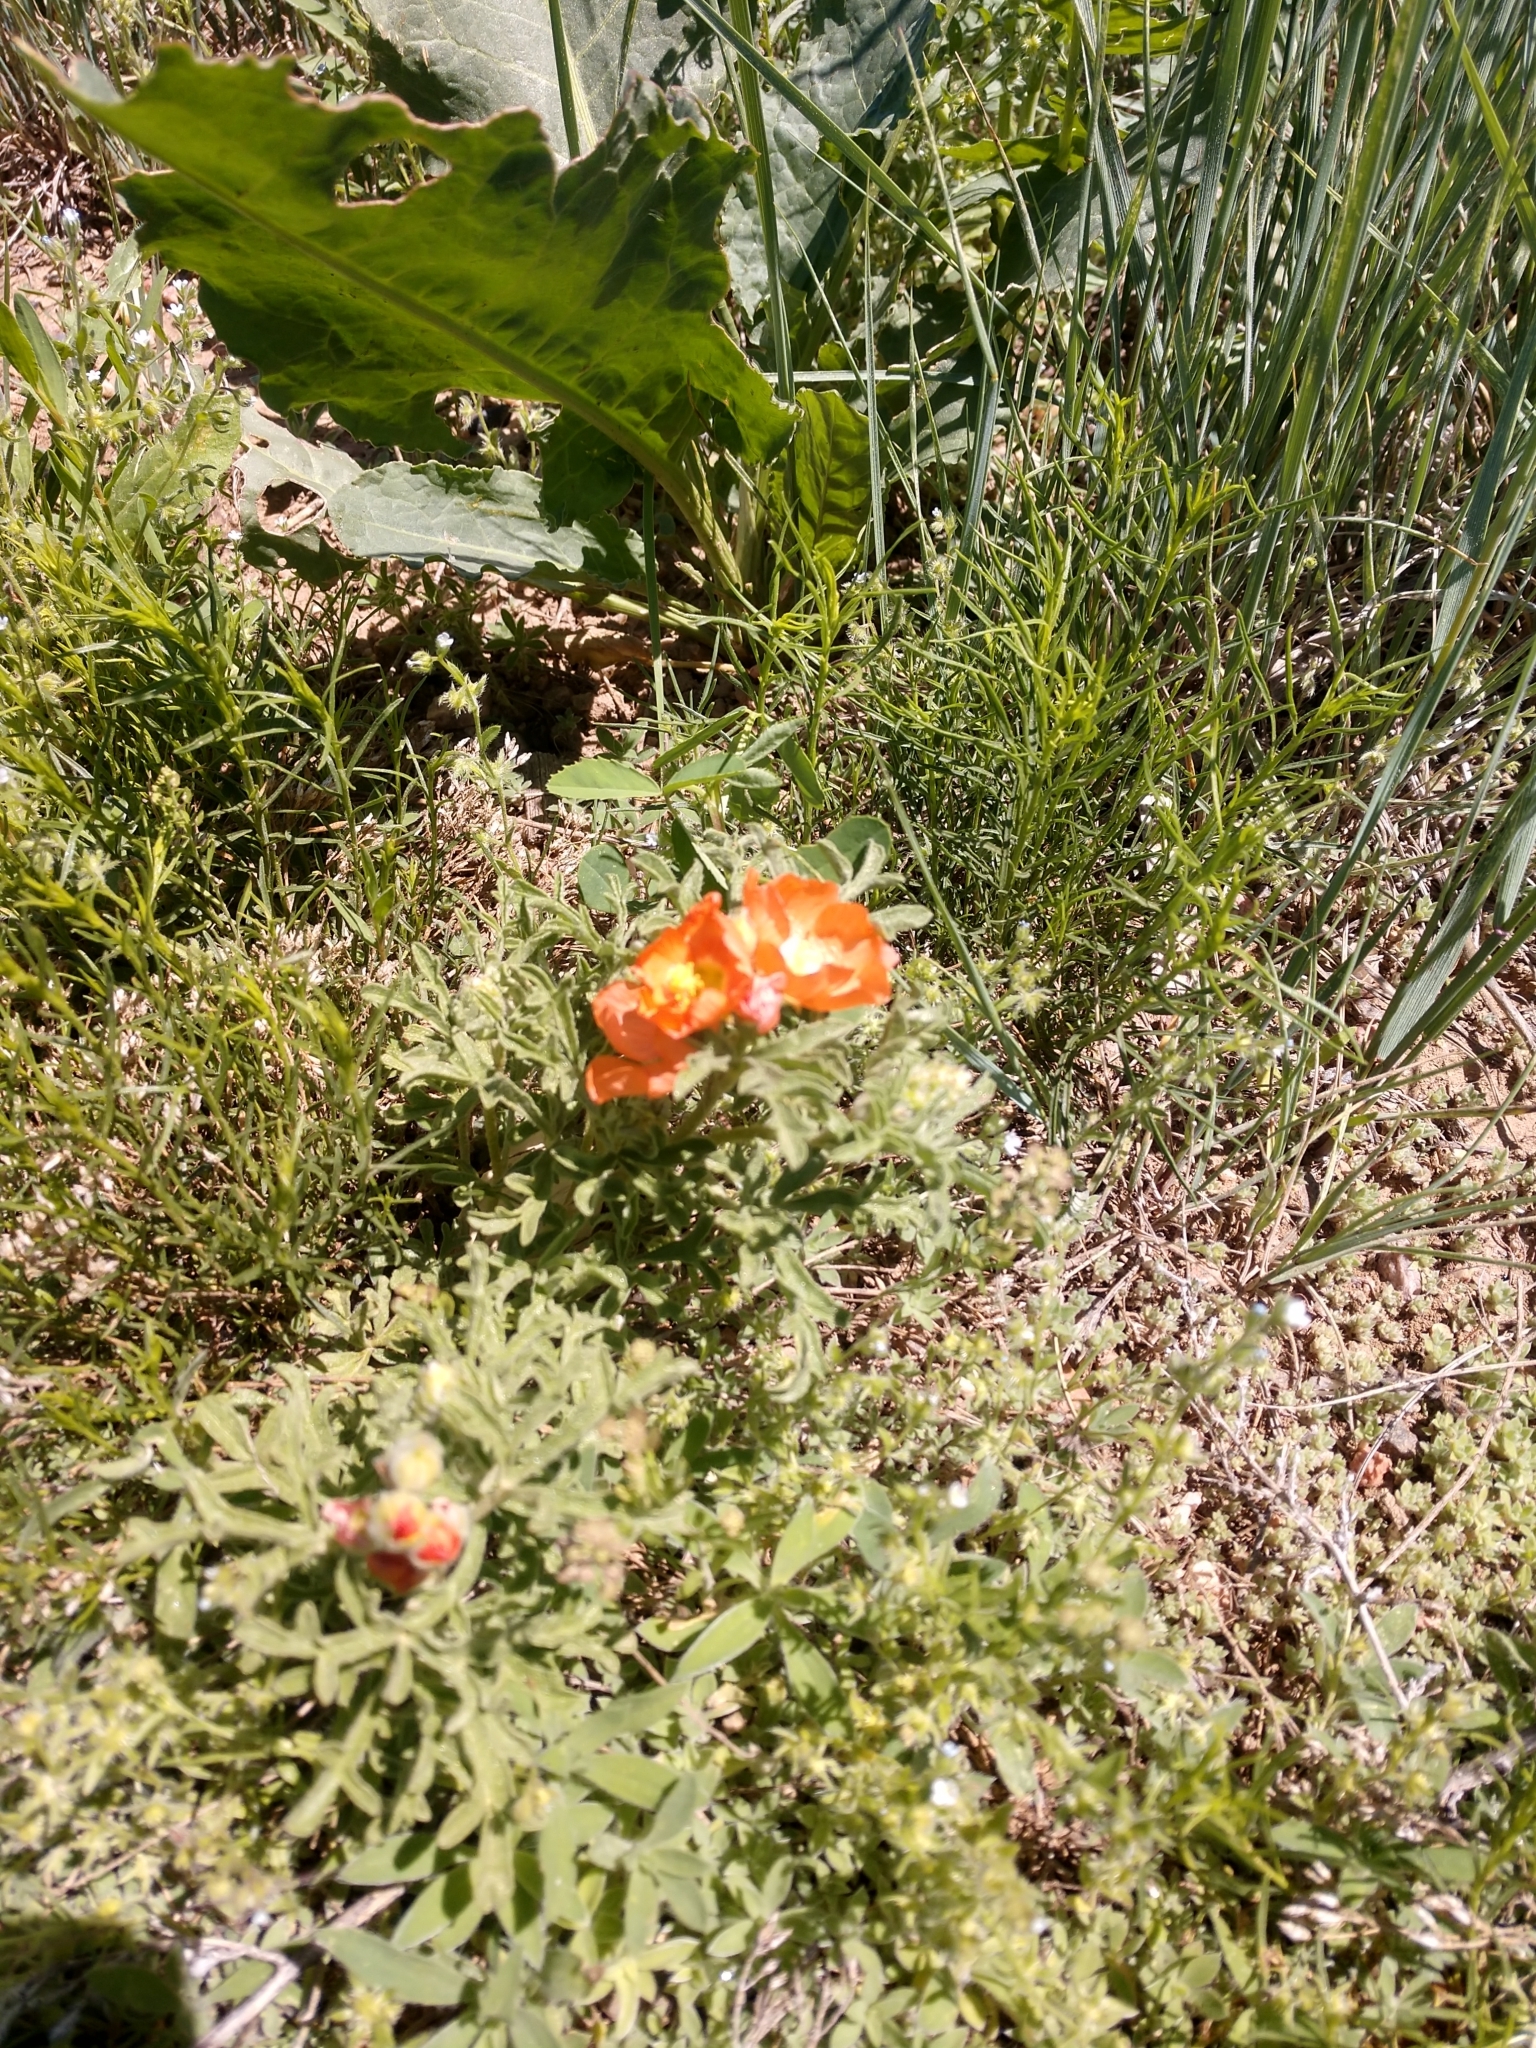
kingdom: Plantae
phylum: Tracheophyta
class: Magnoliopsida
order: Malvales
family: Malvaceae
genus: Sphaeralcea
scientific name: Sphaeralcea coccinea
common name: Moss-rose
